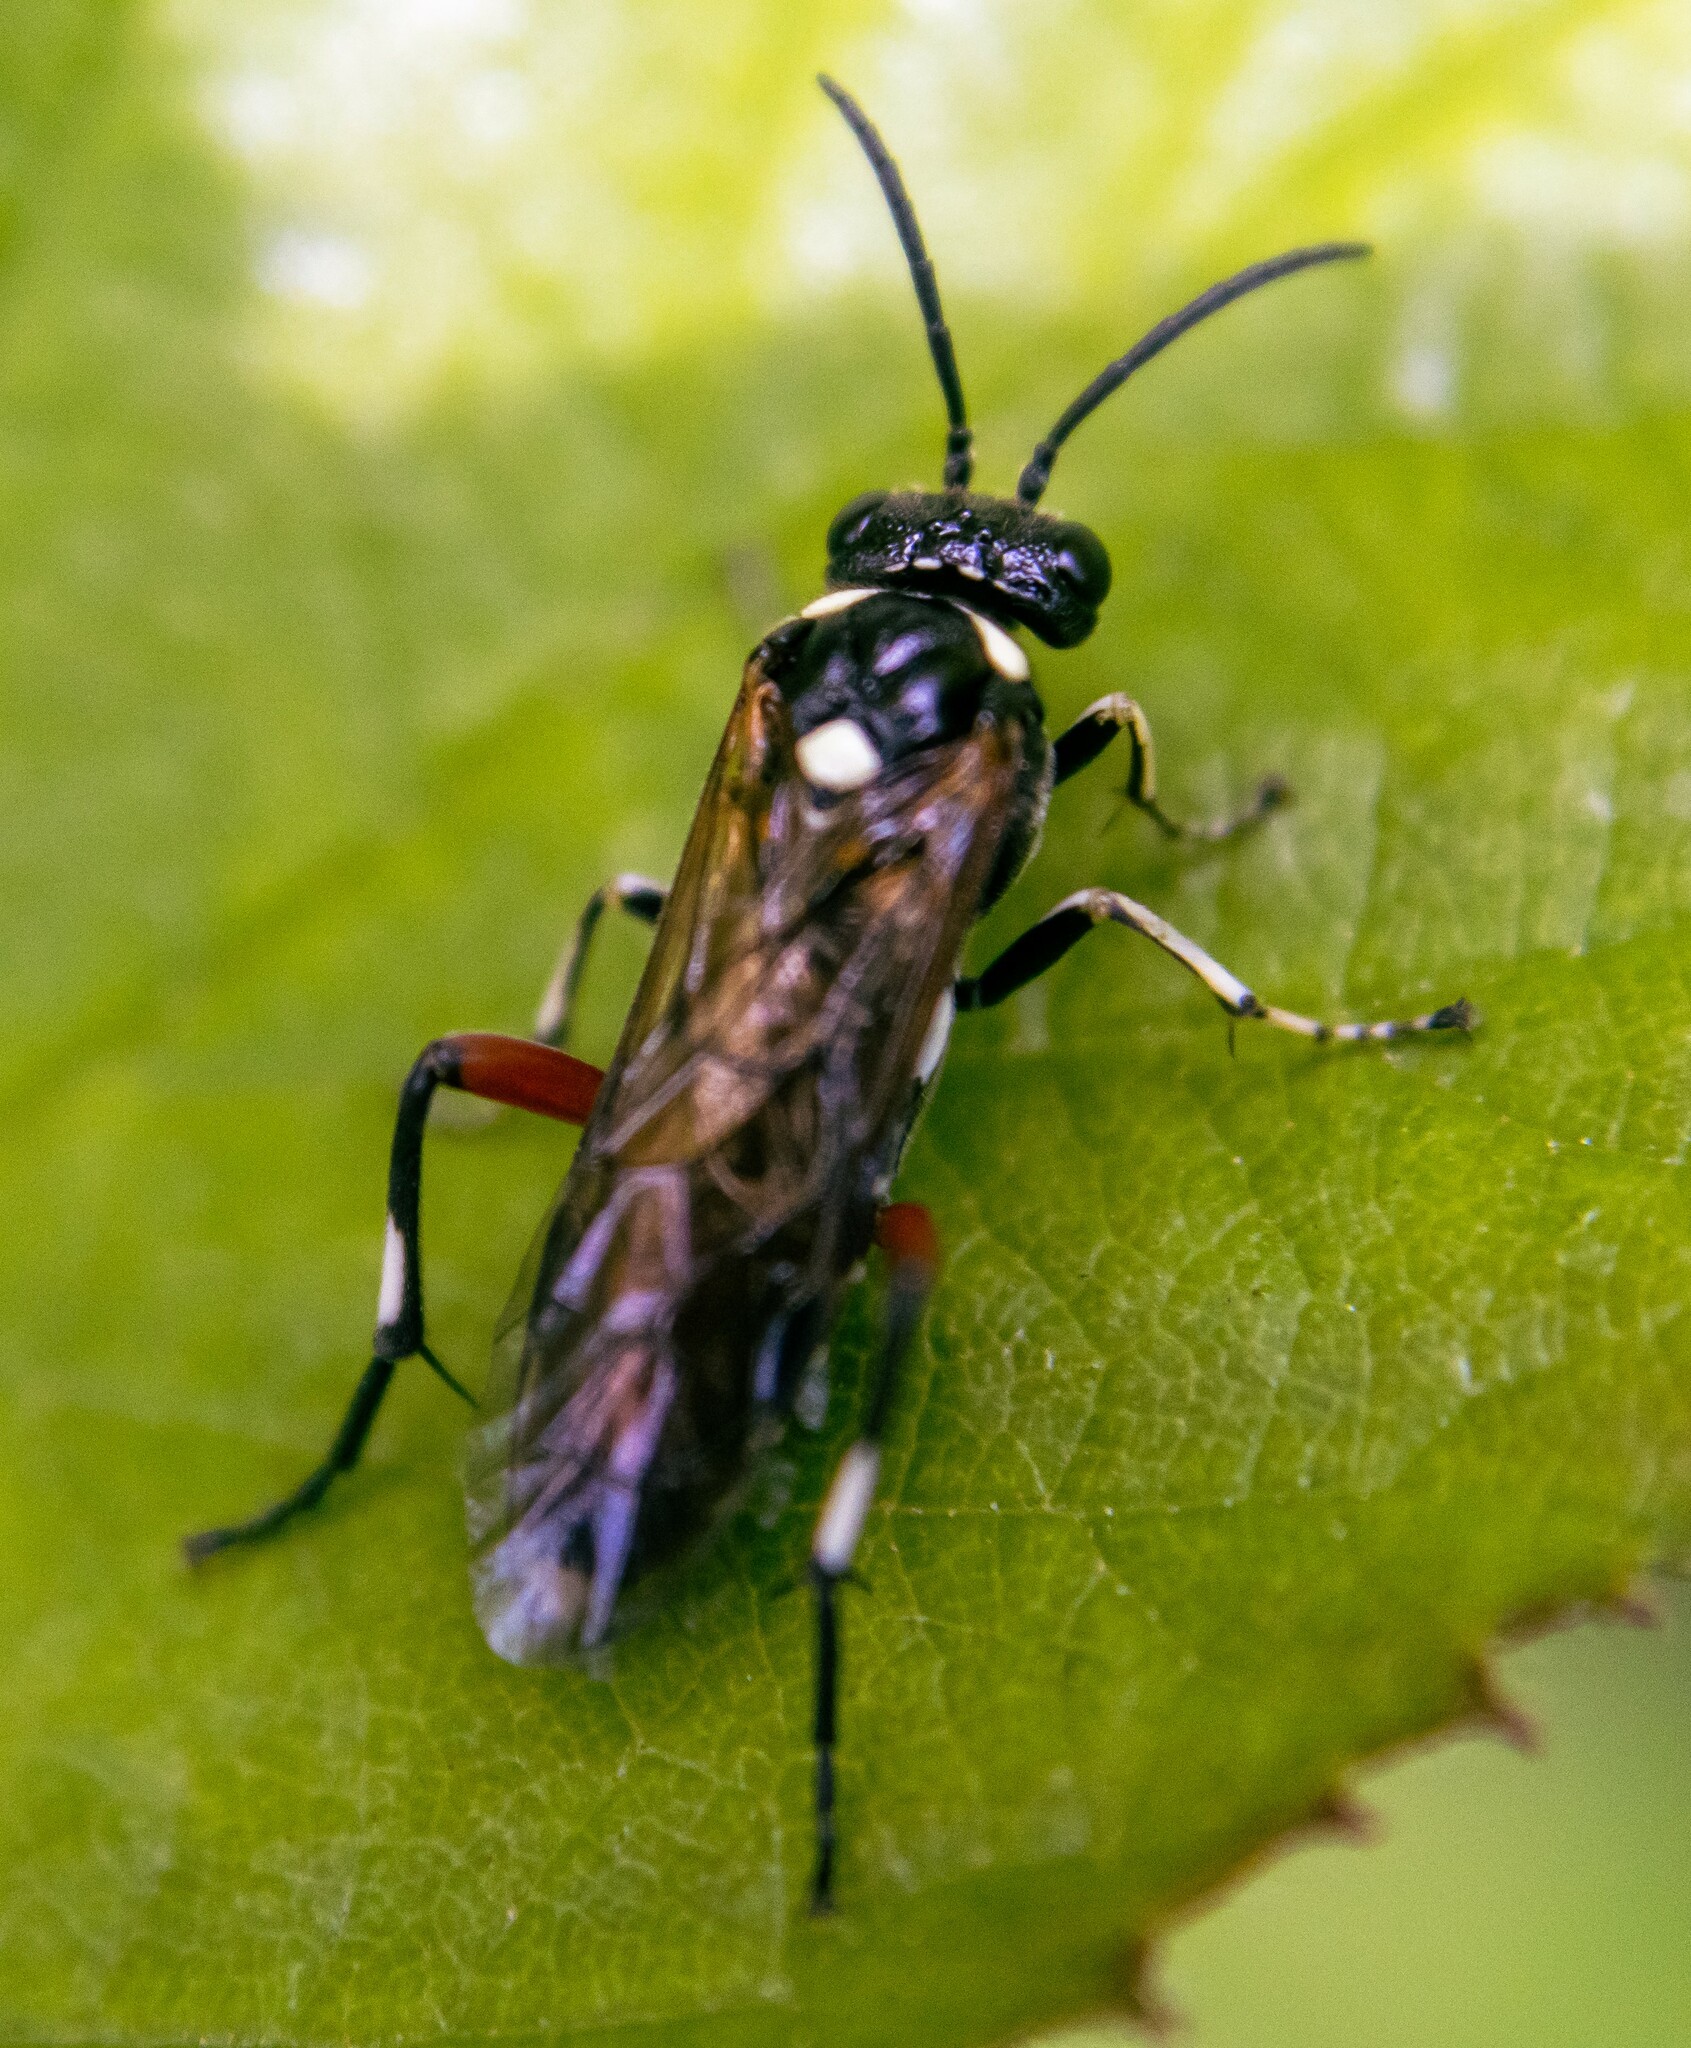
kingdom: Animalia
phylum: Arthropoda
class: Insecta
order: Hymenoptera
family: Tenthredinidae
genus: Macrophya
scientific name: Macrophya punctumalbum
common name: Sawfly
